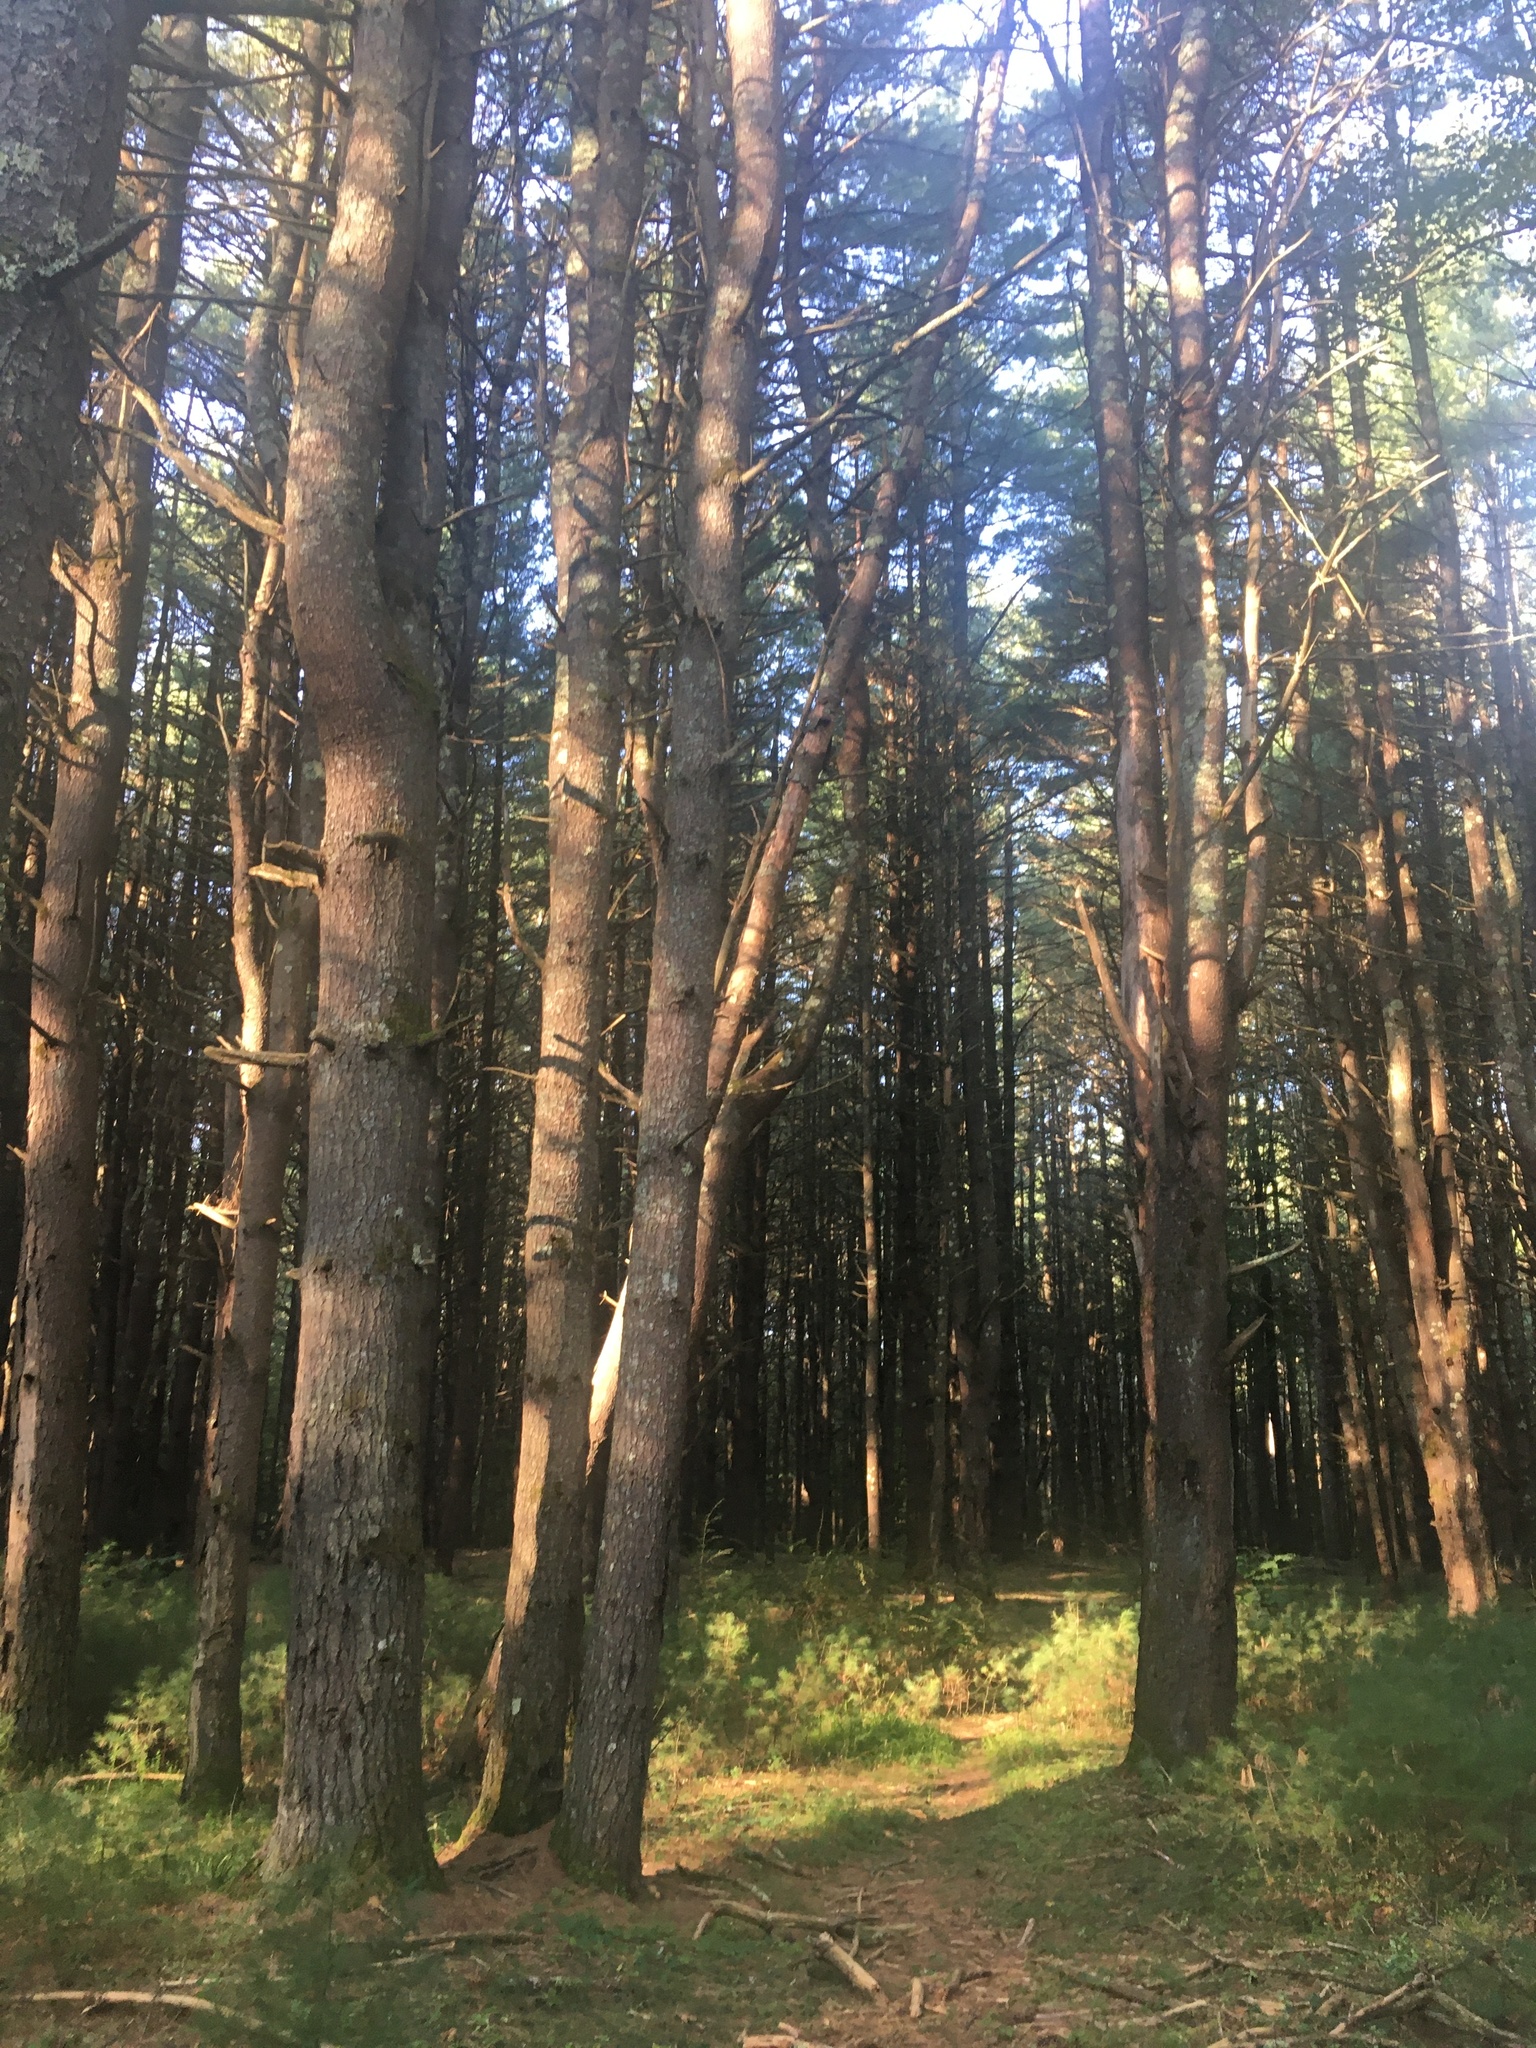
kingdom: Plantae
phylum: Tracheophyta
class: Pinopsida
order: Pinales
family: Pinaceae
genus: Pinus
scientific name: Pinus strobus
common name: Weymouth pine
